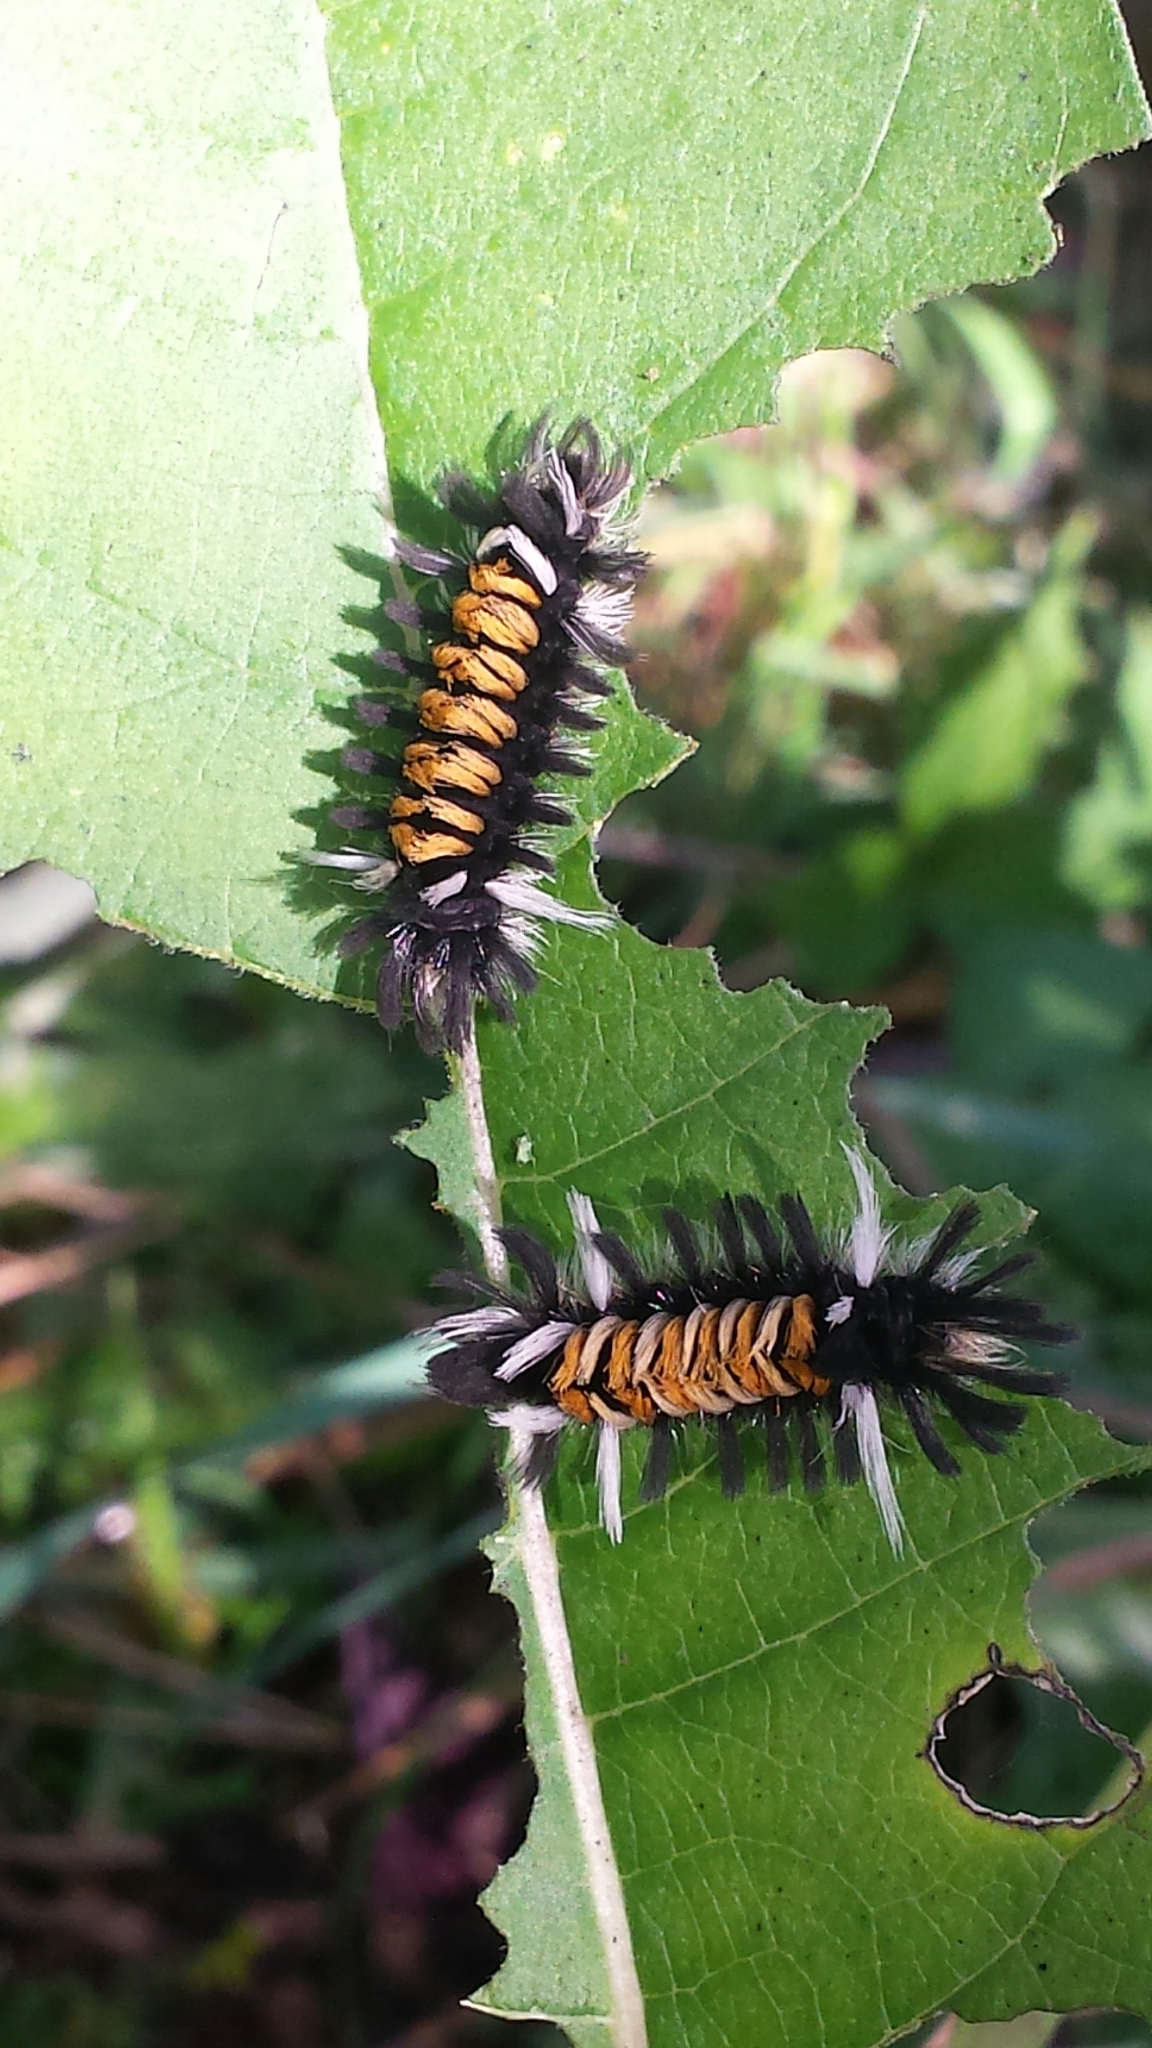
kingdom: Animalia
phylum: Arthropoda
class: Insecta
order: Lepidoptera
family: Erebidae
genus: Euchaetes
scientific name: Euchaetes egle
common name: Milkweed tussock moth
